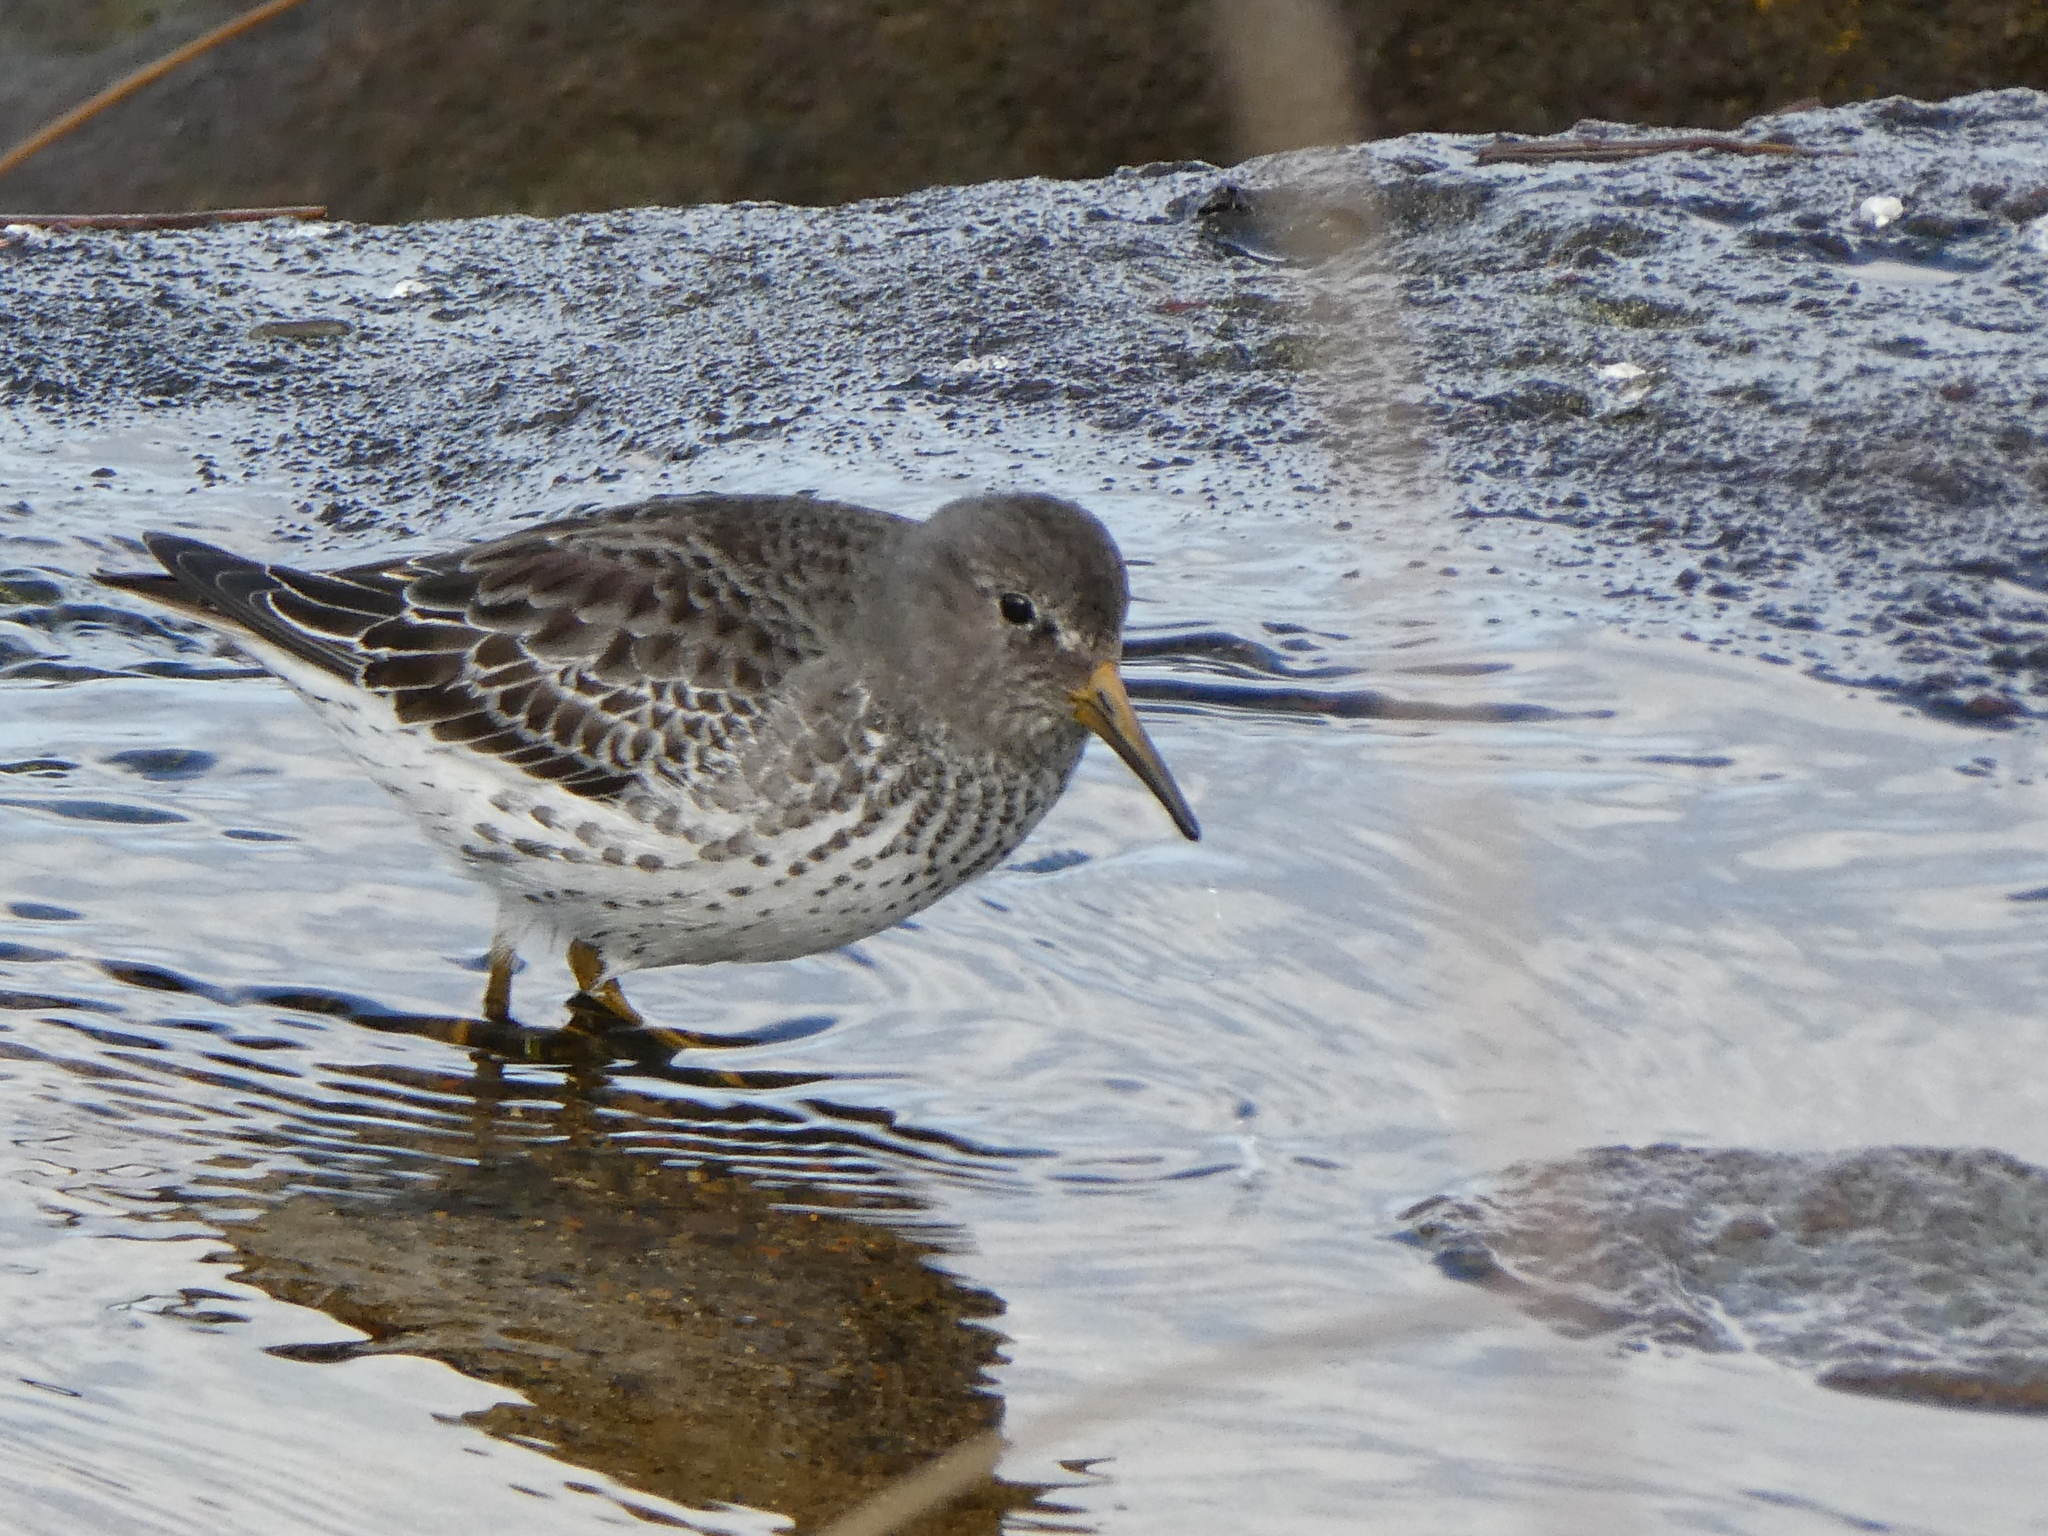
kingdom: Animalia
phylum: Chordata
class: Aves
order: Charadriiformes
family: Scolopacidae
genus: Calidris
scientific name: Calidris ptilocnemis
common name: Rock sandpiper
